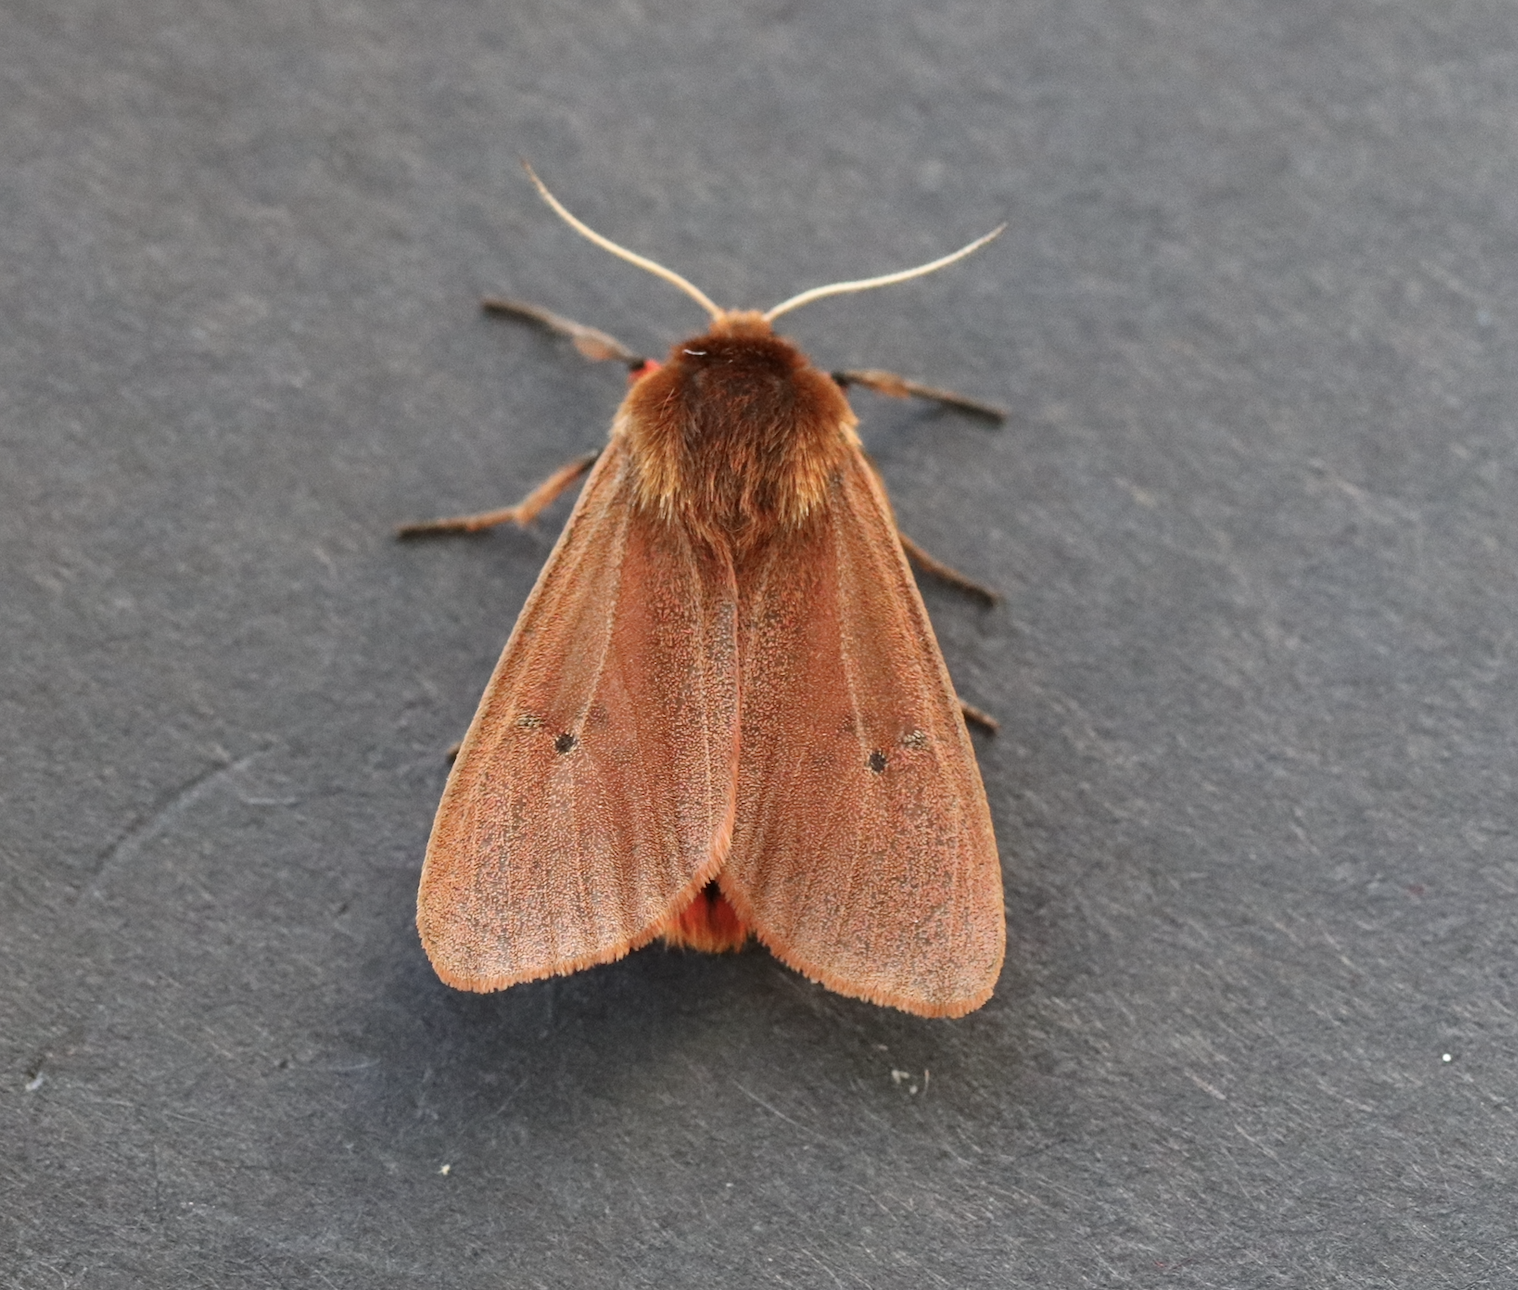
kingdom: Animalia
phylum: Arthropoda
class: Insecta
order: Lepidoptera
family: Erebidae
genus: Phragmatobia
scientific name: Phragmatobia fuliginosa
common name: Ruby tiger
